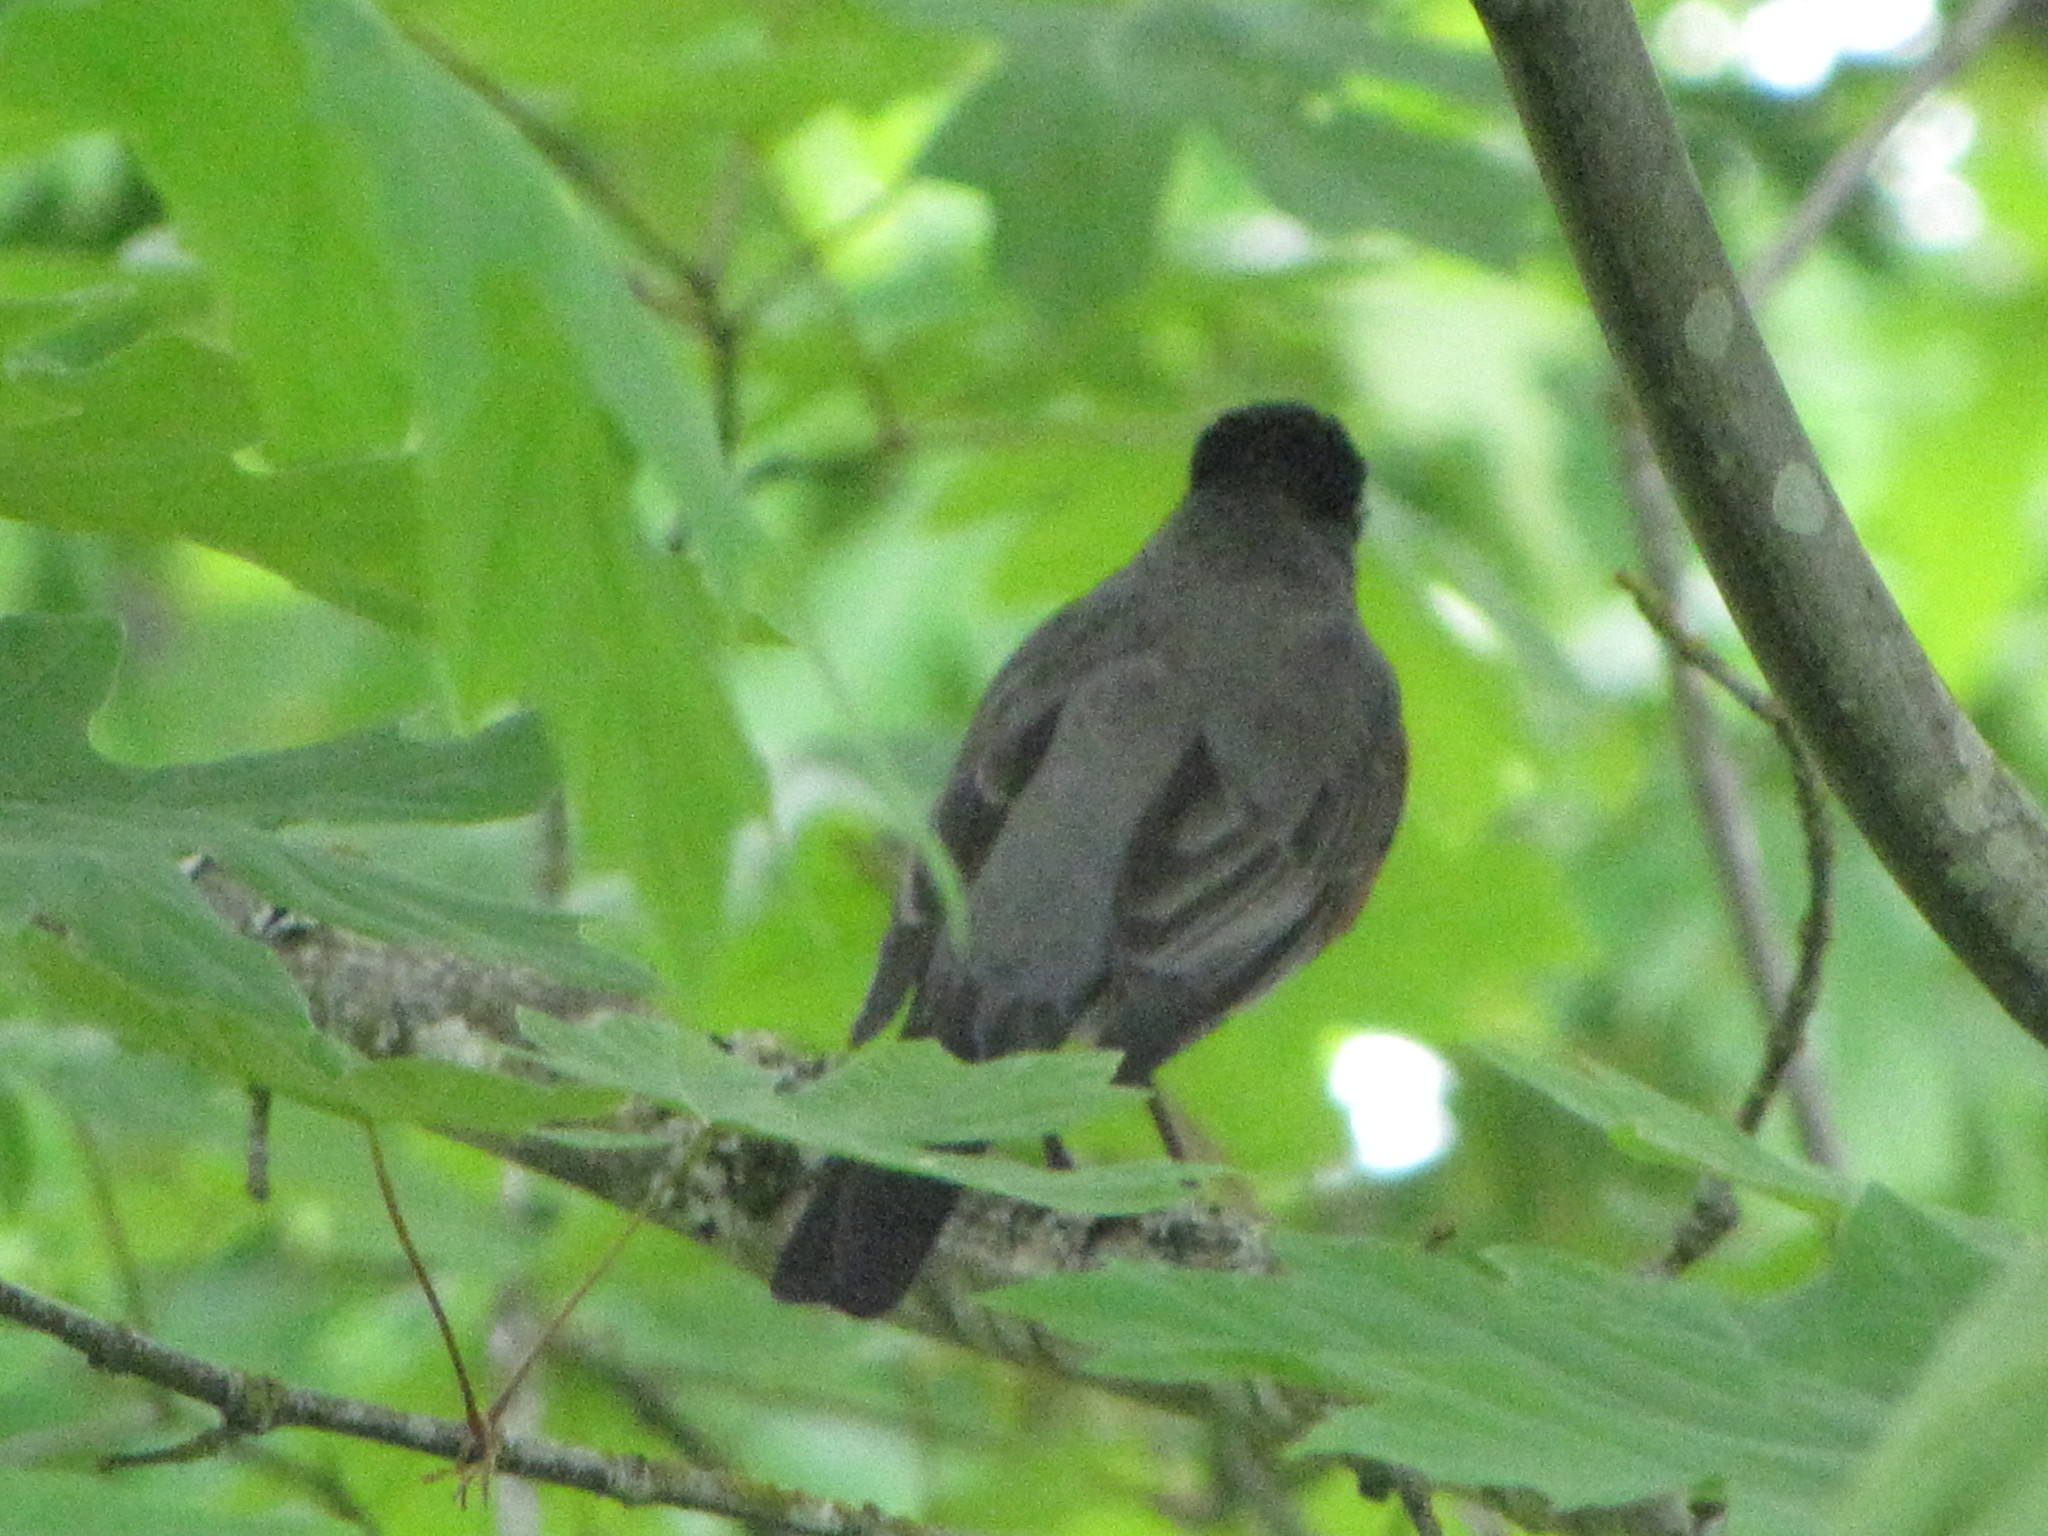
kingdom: Animalia
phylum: Chordata
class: Aves
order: Passeriformes
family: Turdidae
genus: Turdus
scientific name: Turdus migratorius
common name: American robin
